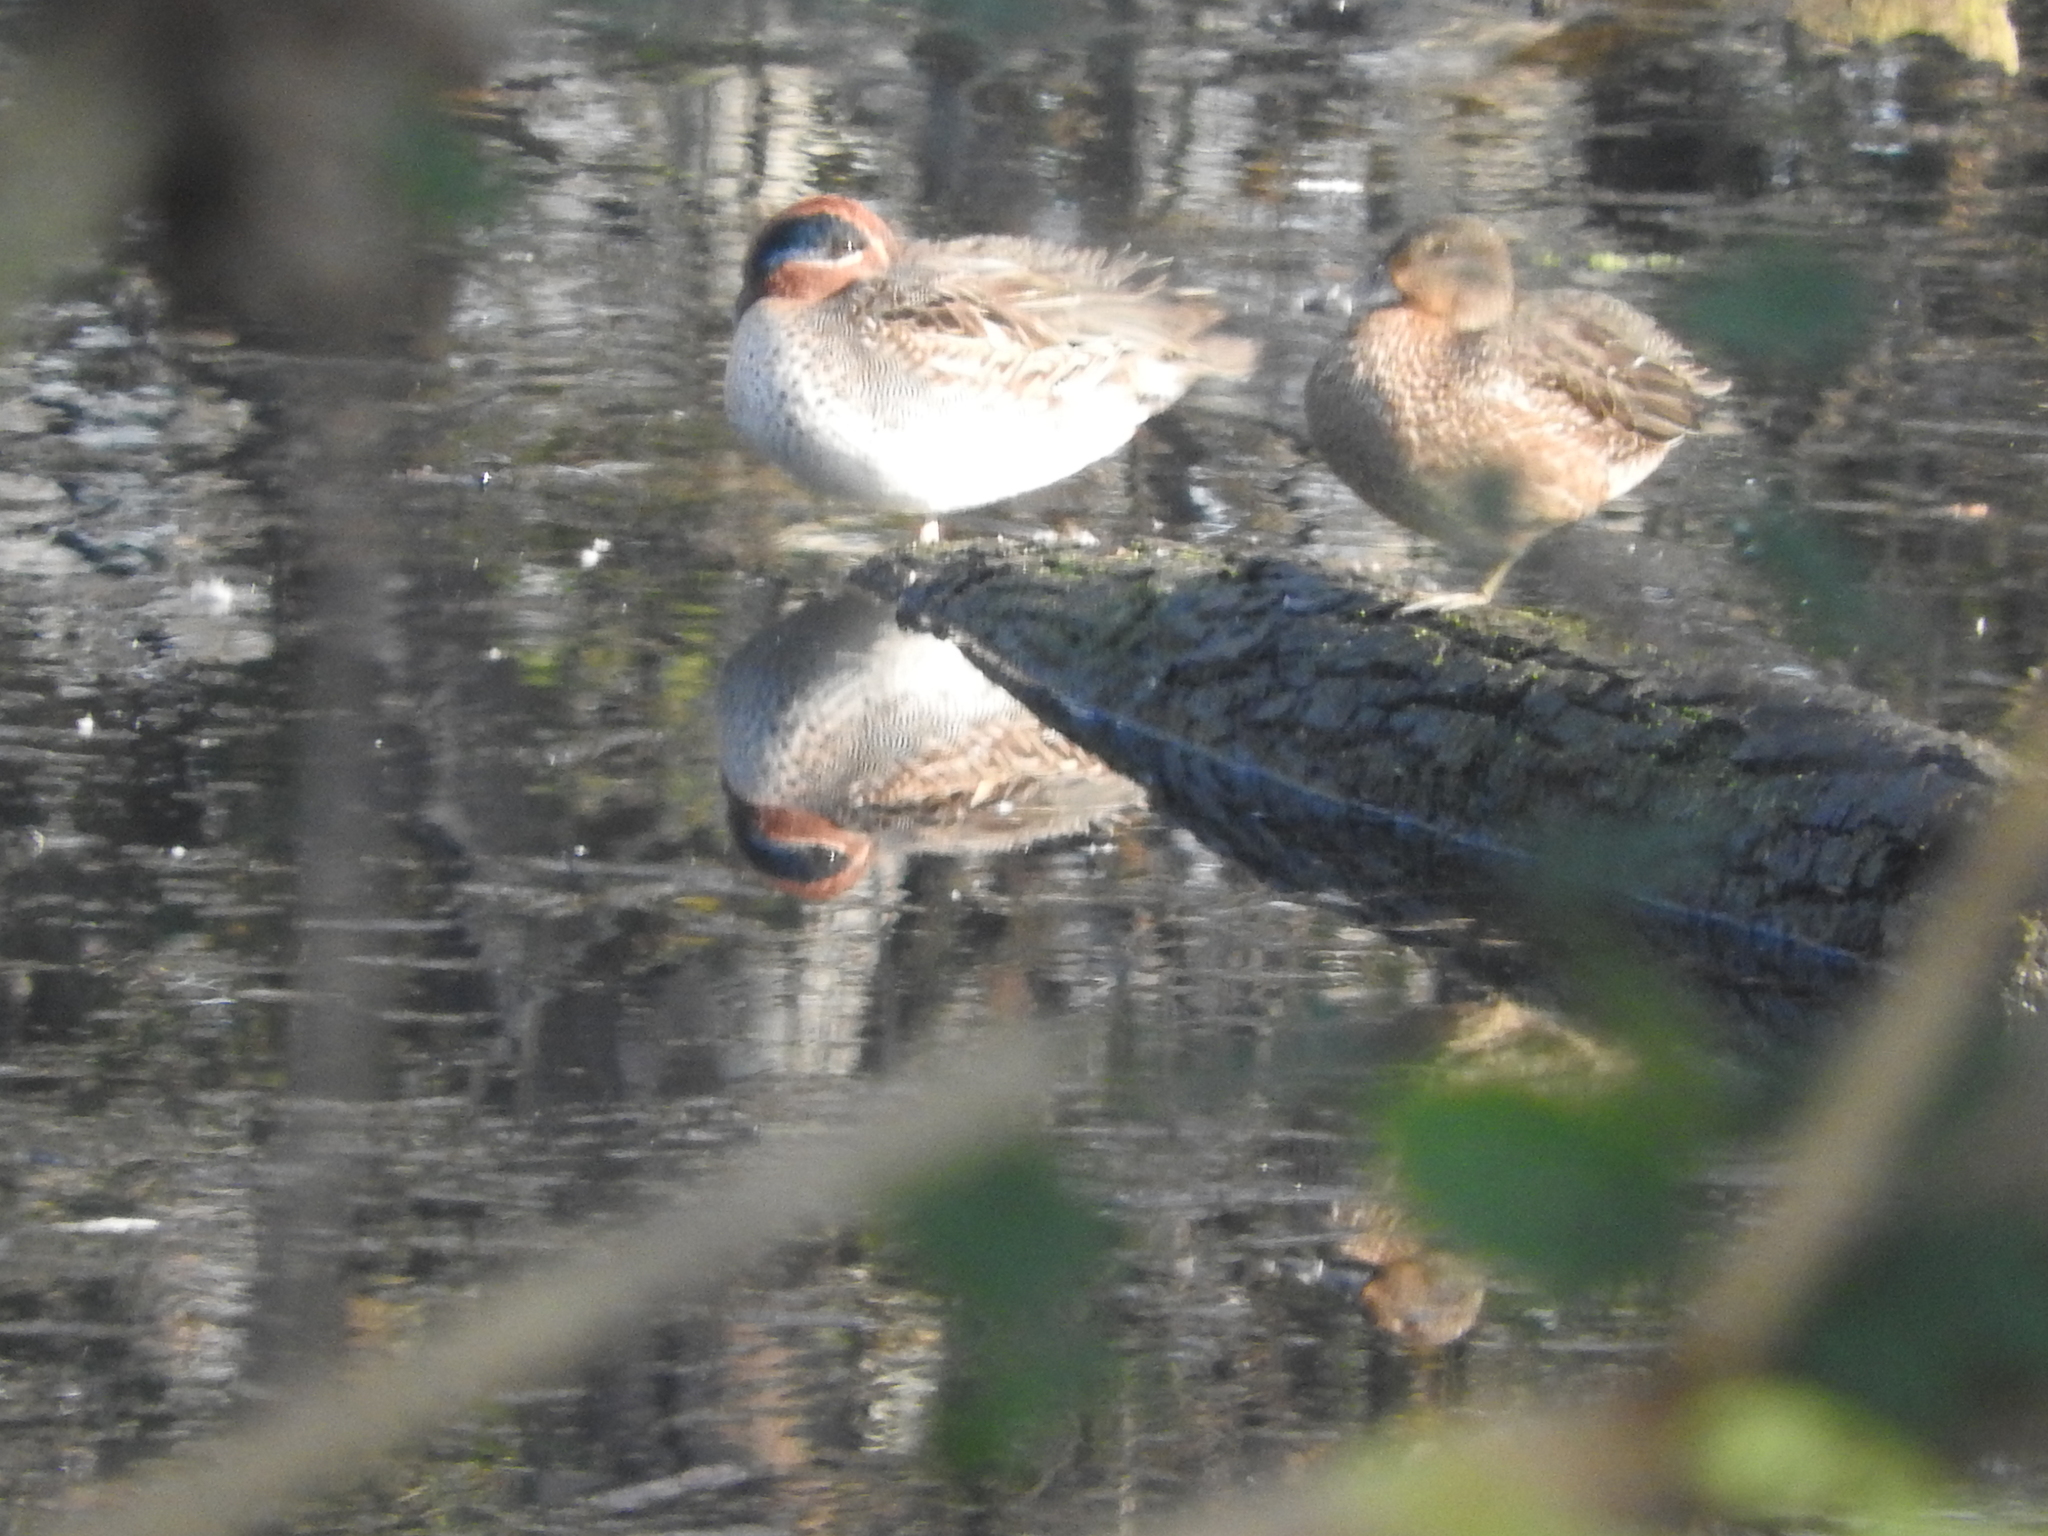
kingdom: Animalia
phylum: Chordata
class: Aves
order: Anseriformes
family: Anatidae
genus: Anas
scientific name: Anas crecca
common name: Eurasian teal
